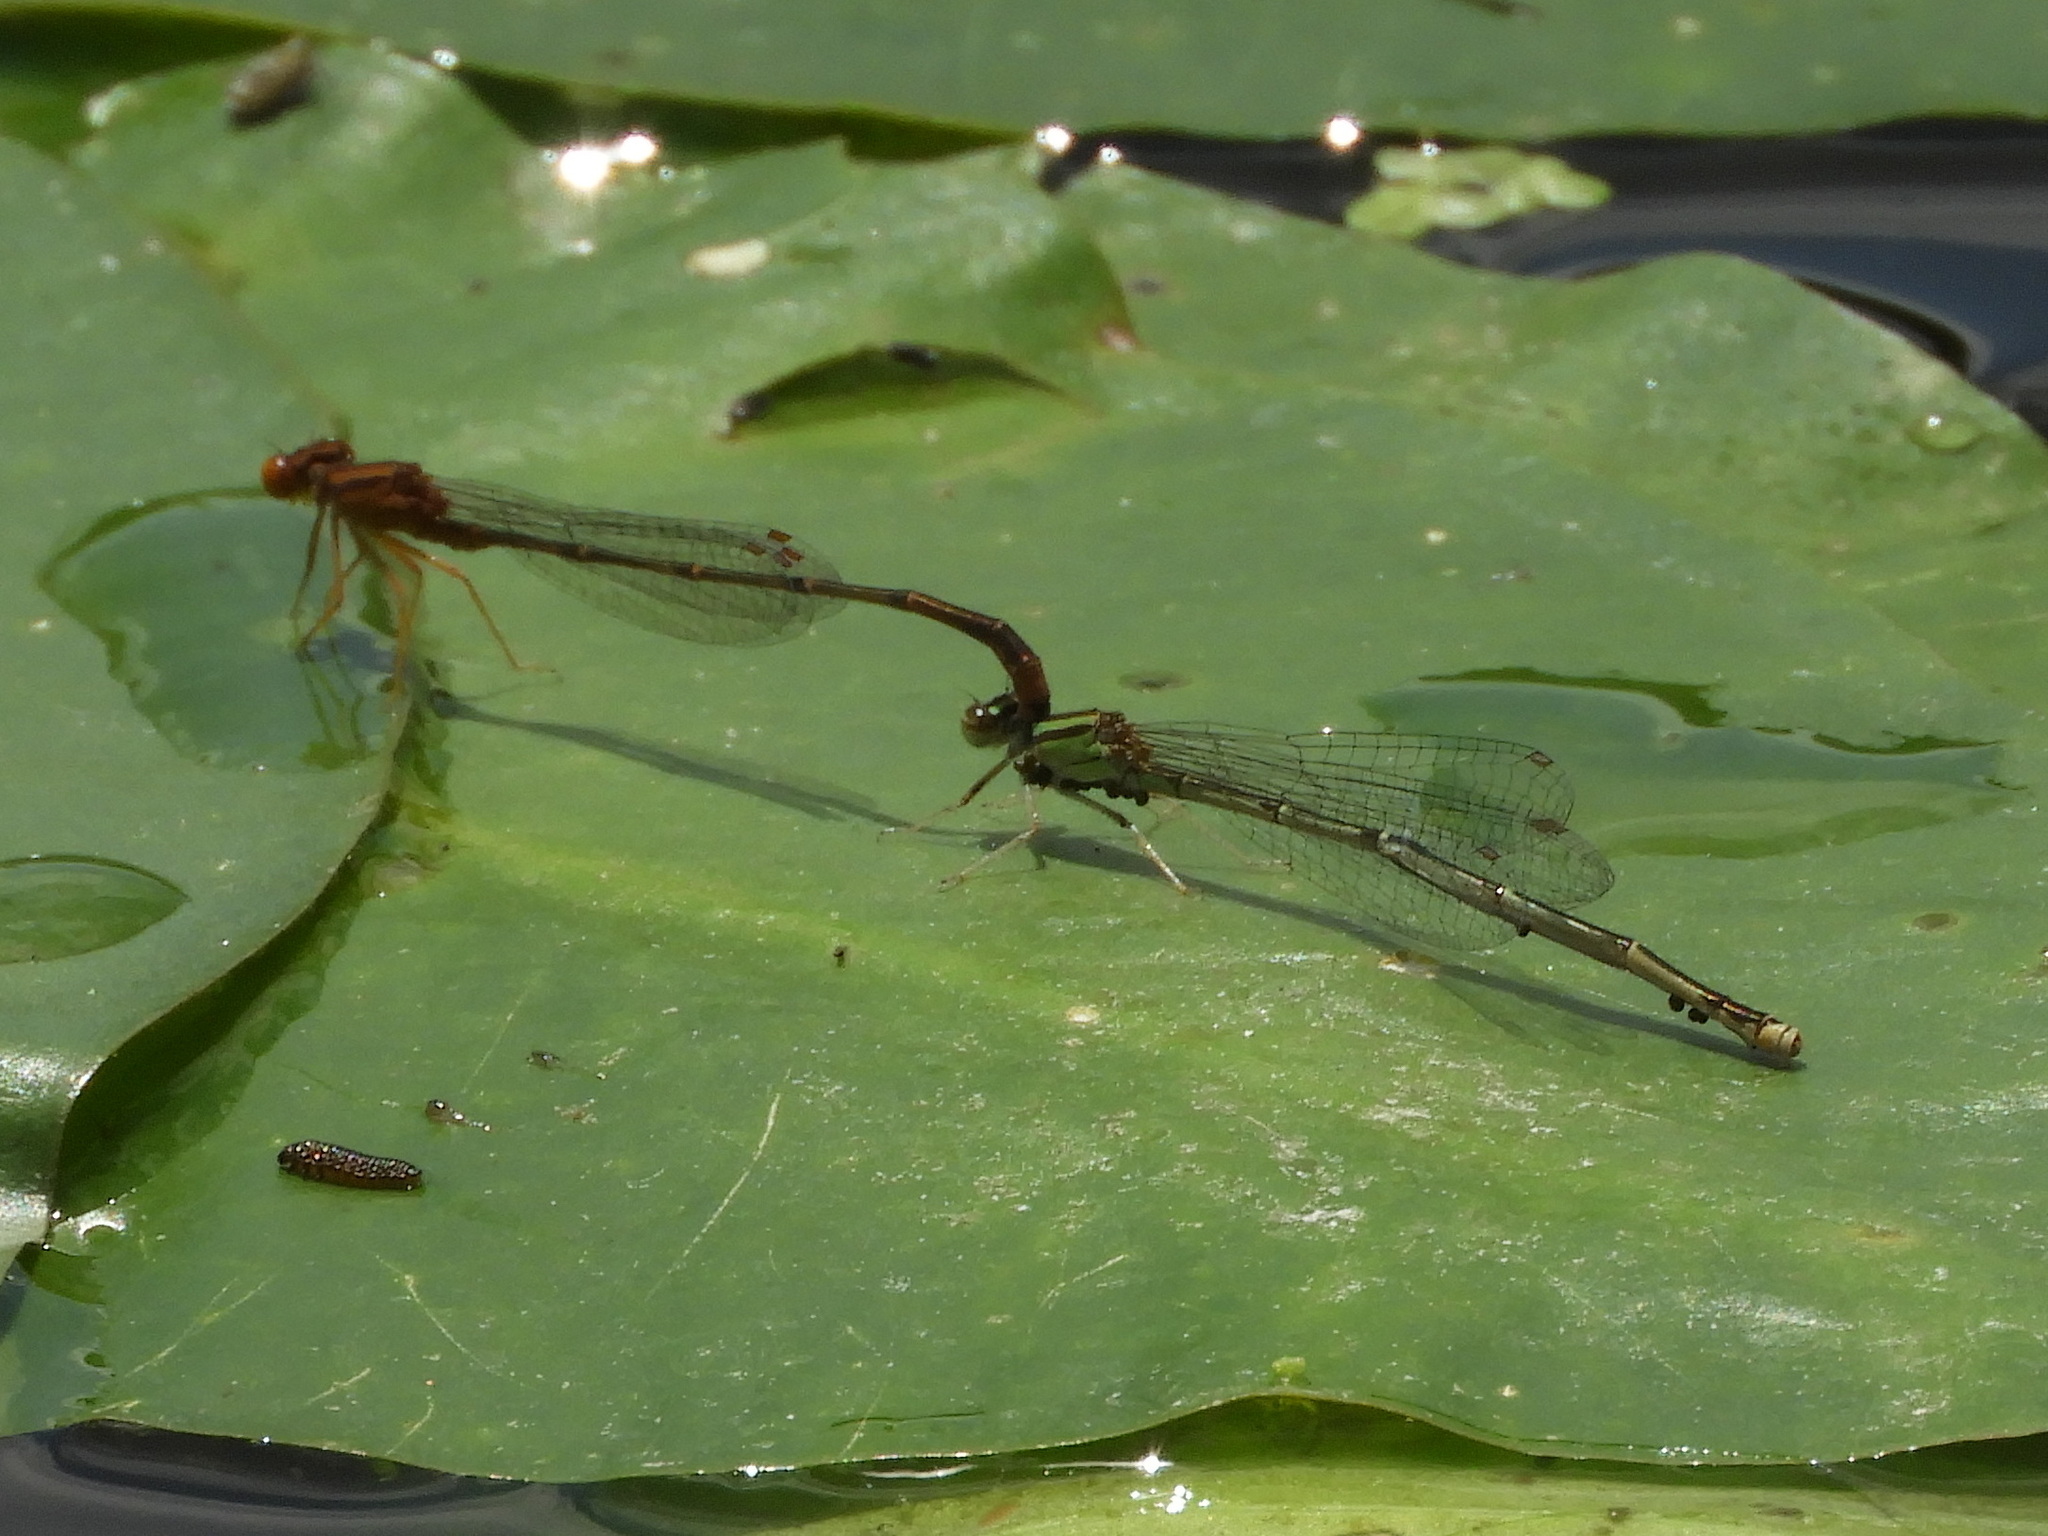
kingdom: Animalia
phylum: Arthropoda
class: Insecta
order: Odonata
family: Coenagrionidae
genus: Enallagma
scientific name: Enallagma signatum
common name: Orange bluet
